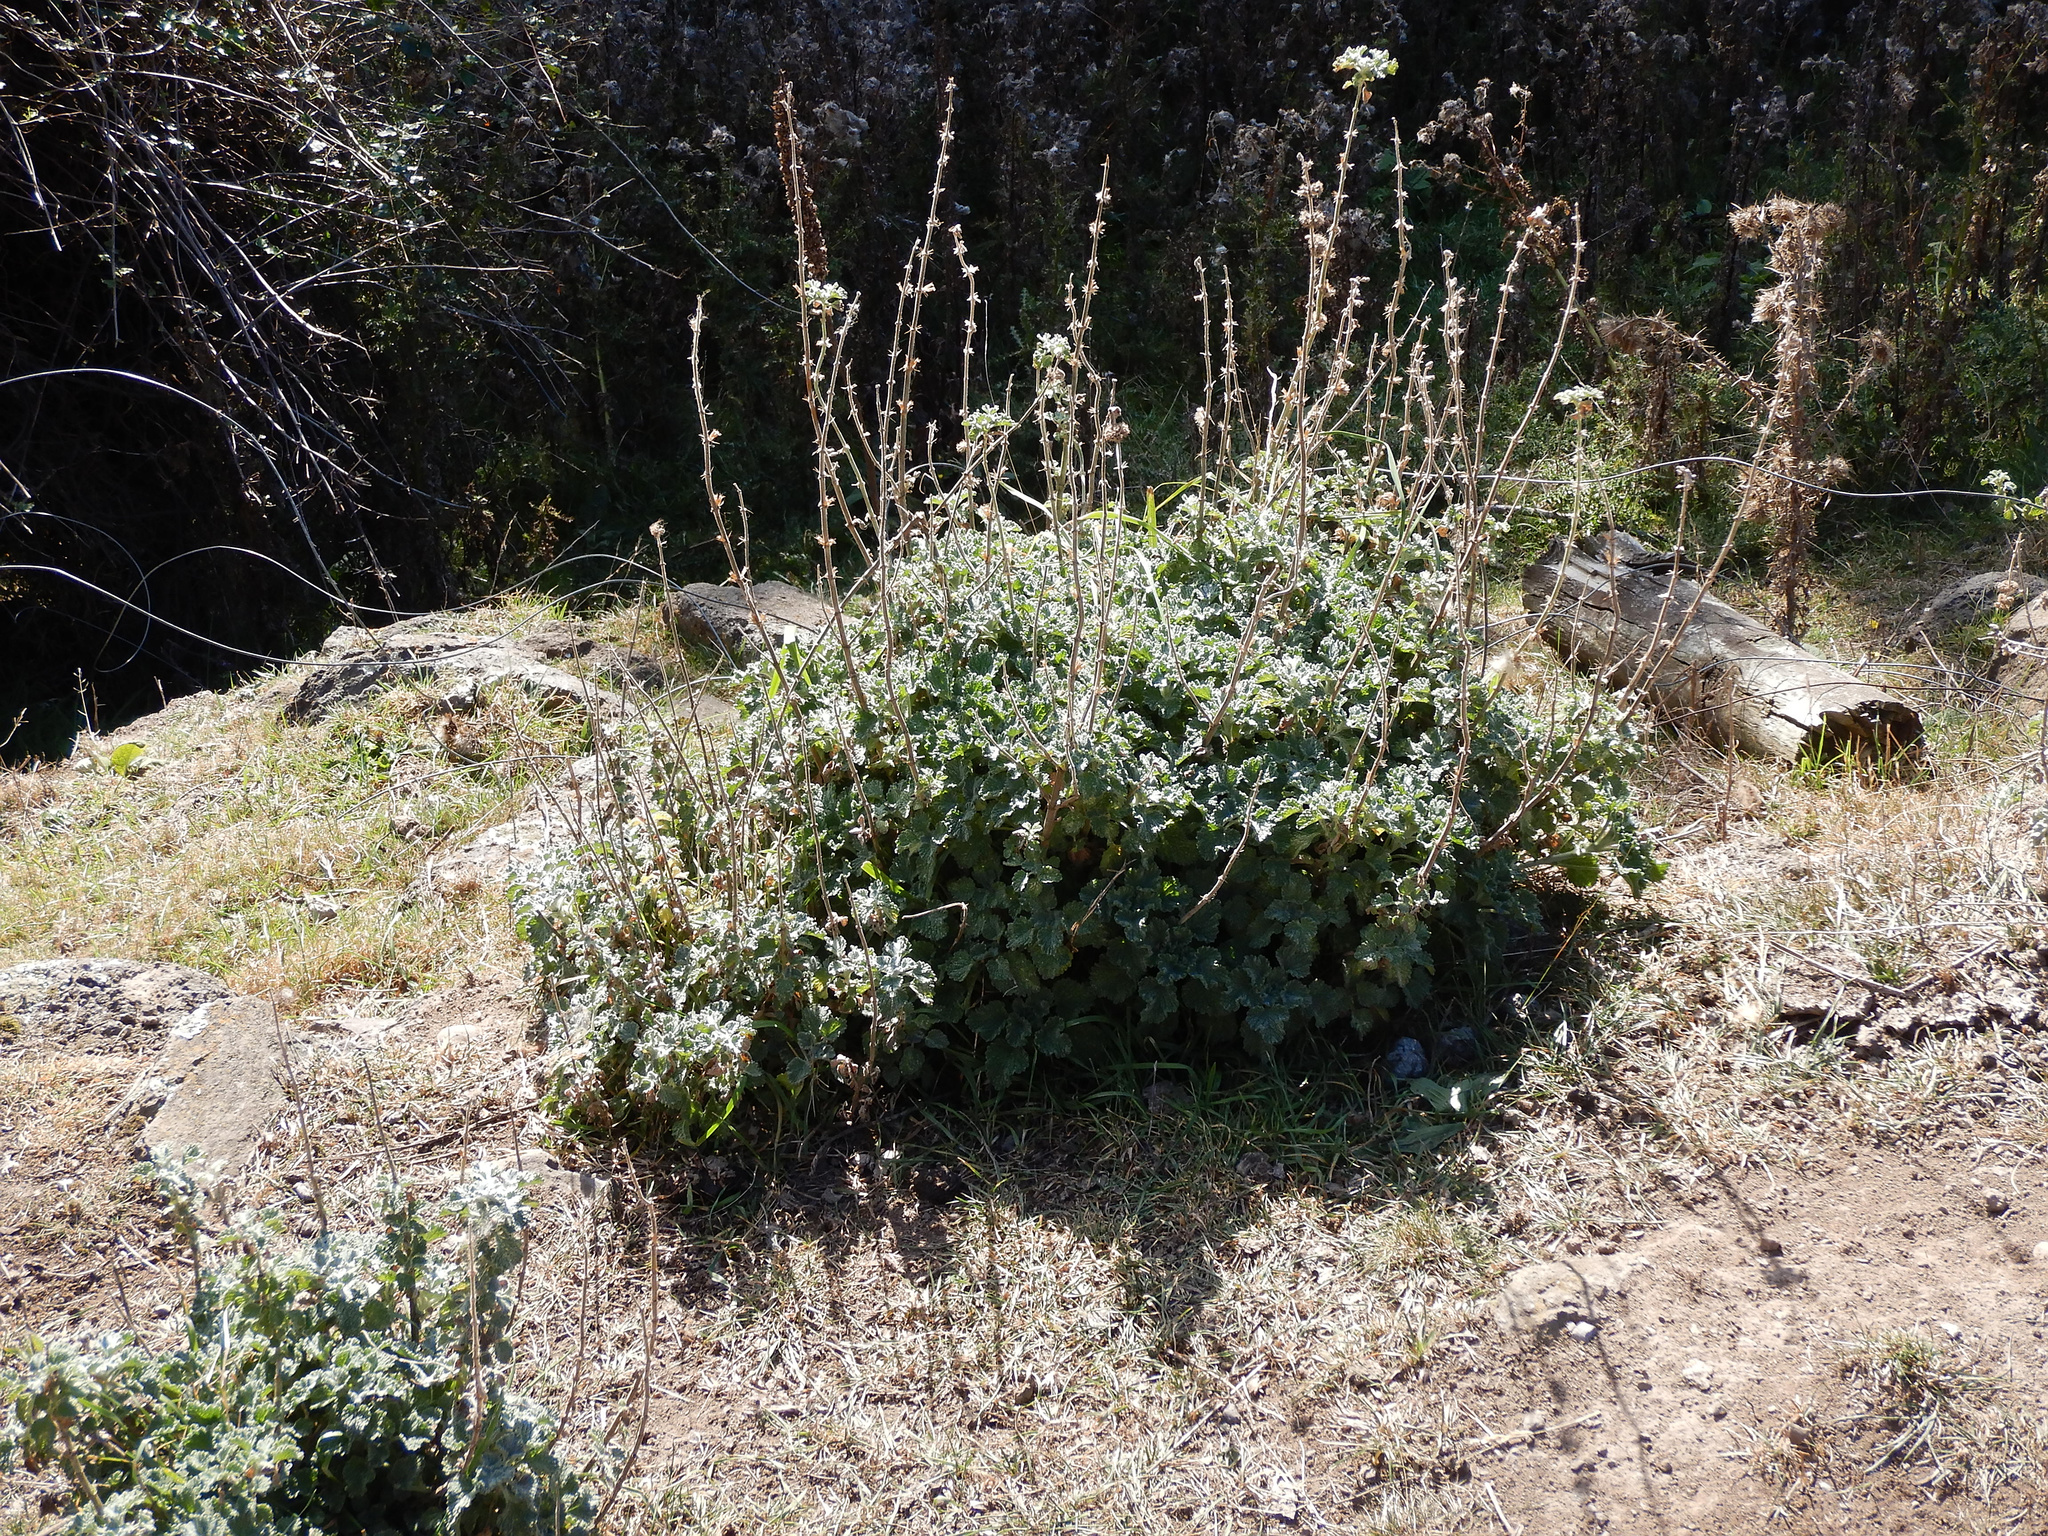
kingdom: Plantae
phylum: Tracheophyta
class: Magnoliopsida
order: Lamiales
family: Lamiaceae
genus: Marrubium
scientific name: Marrubium vulgare
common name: Horehound
